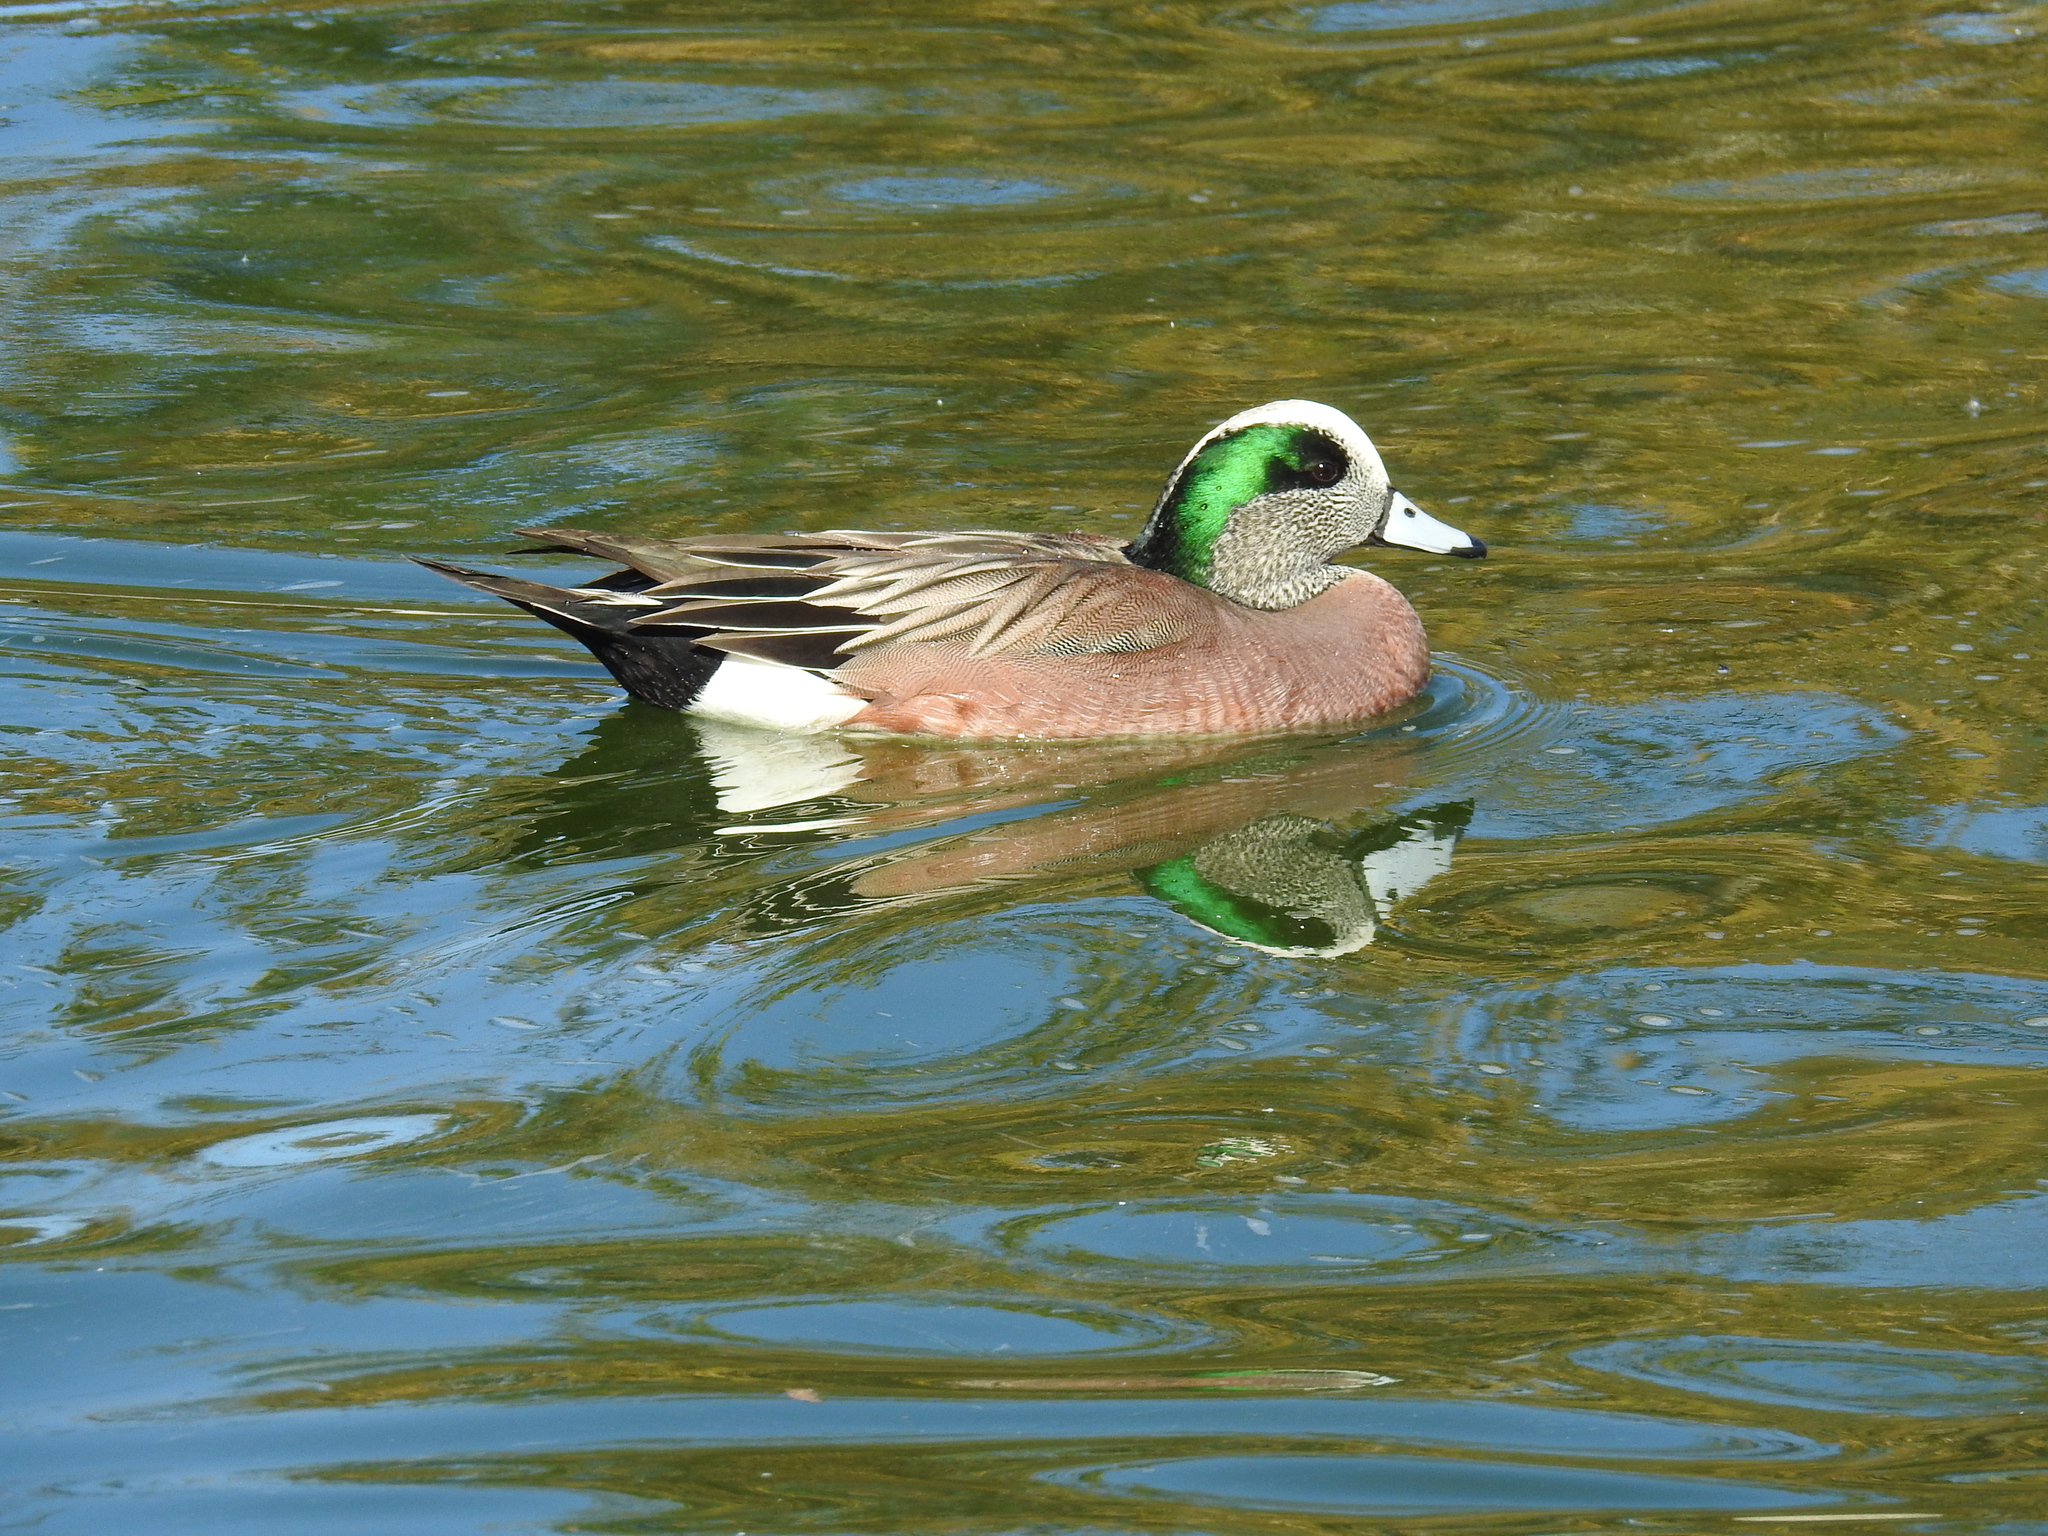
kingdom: Animalia
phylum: Chordata
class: Aves
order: Anseriformes
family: Anatidae
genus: Mareca
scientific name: Mareca americana
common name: American wigeon
